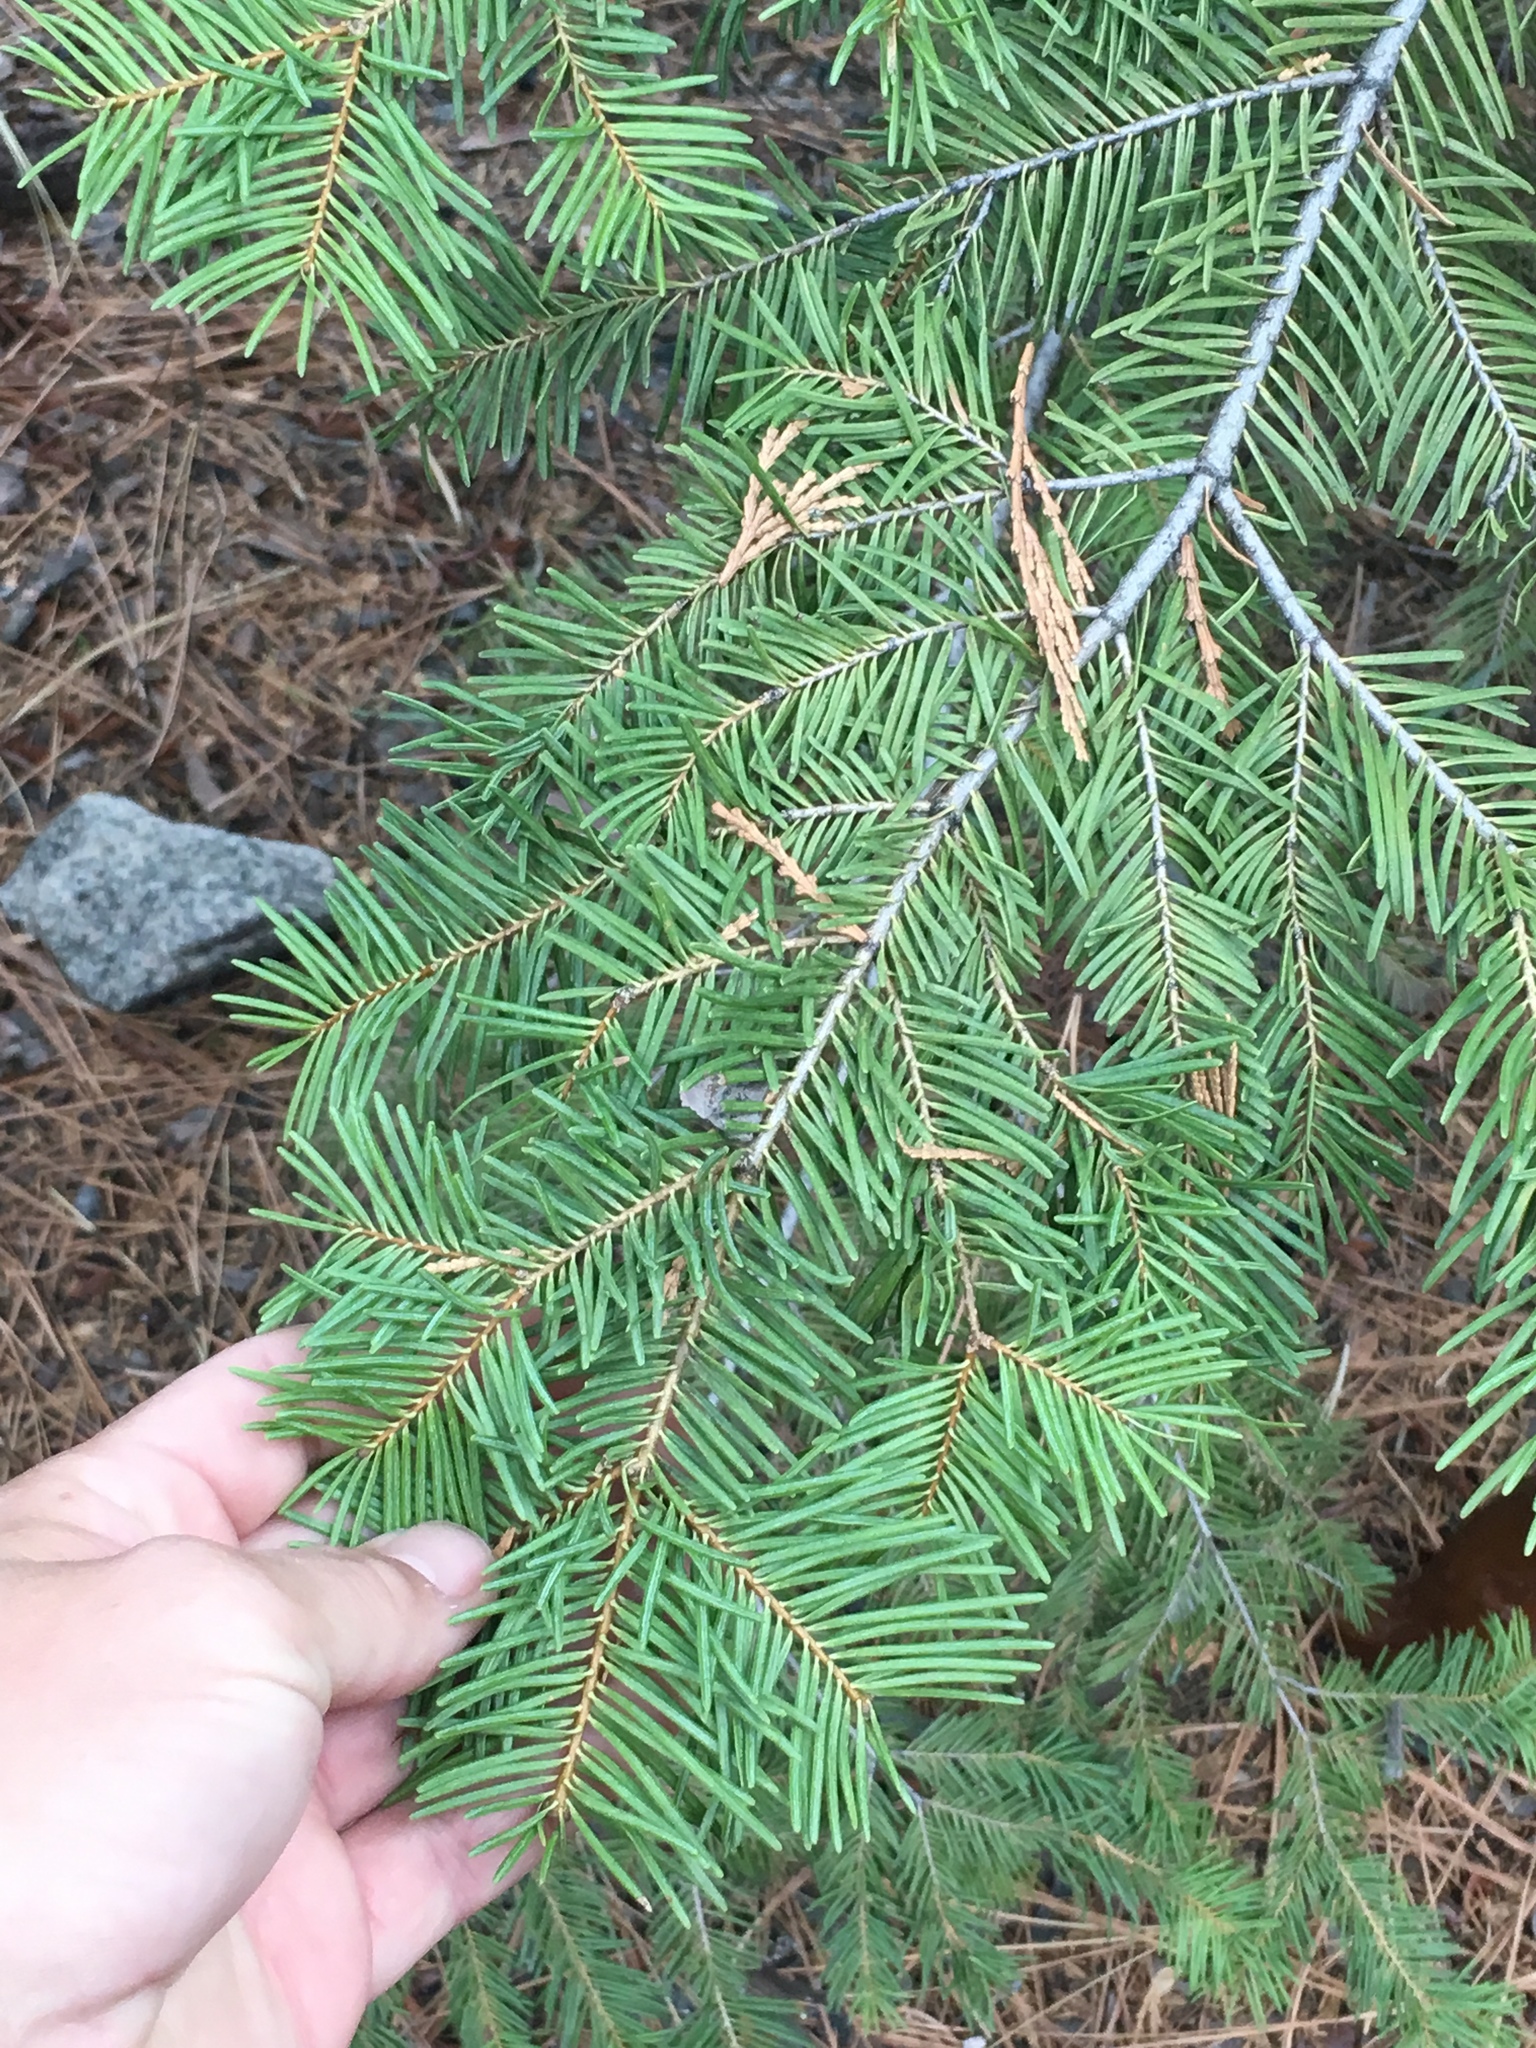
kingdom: Plantae
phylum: Tracheophyta
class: Pinopsida
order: Pinales
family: Pinaceae
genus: Abies
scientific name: Abies concolor
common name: Colorado fir
